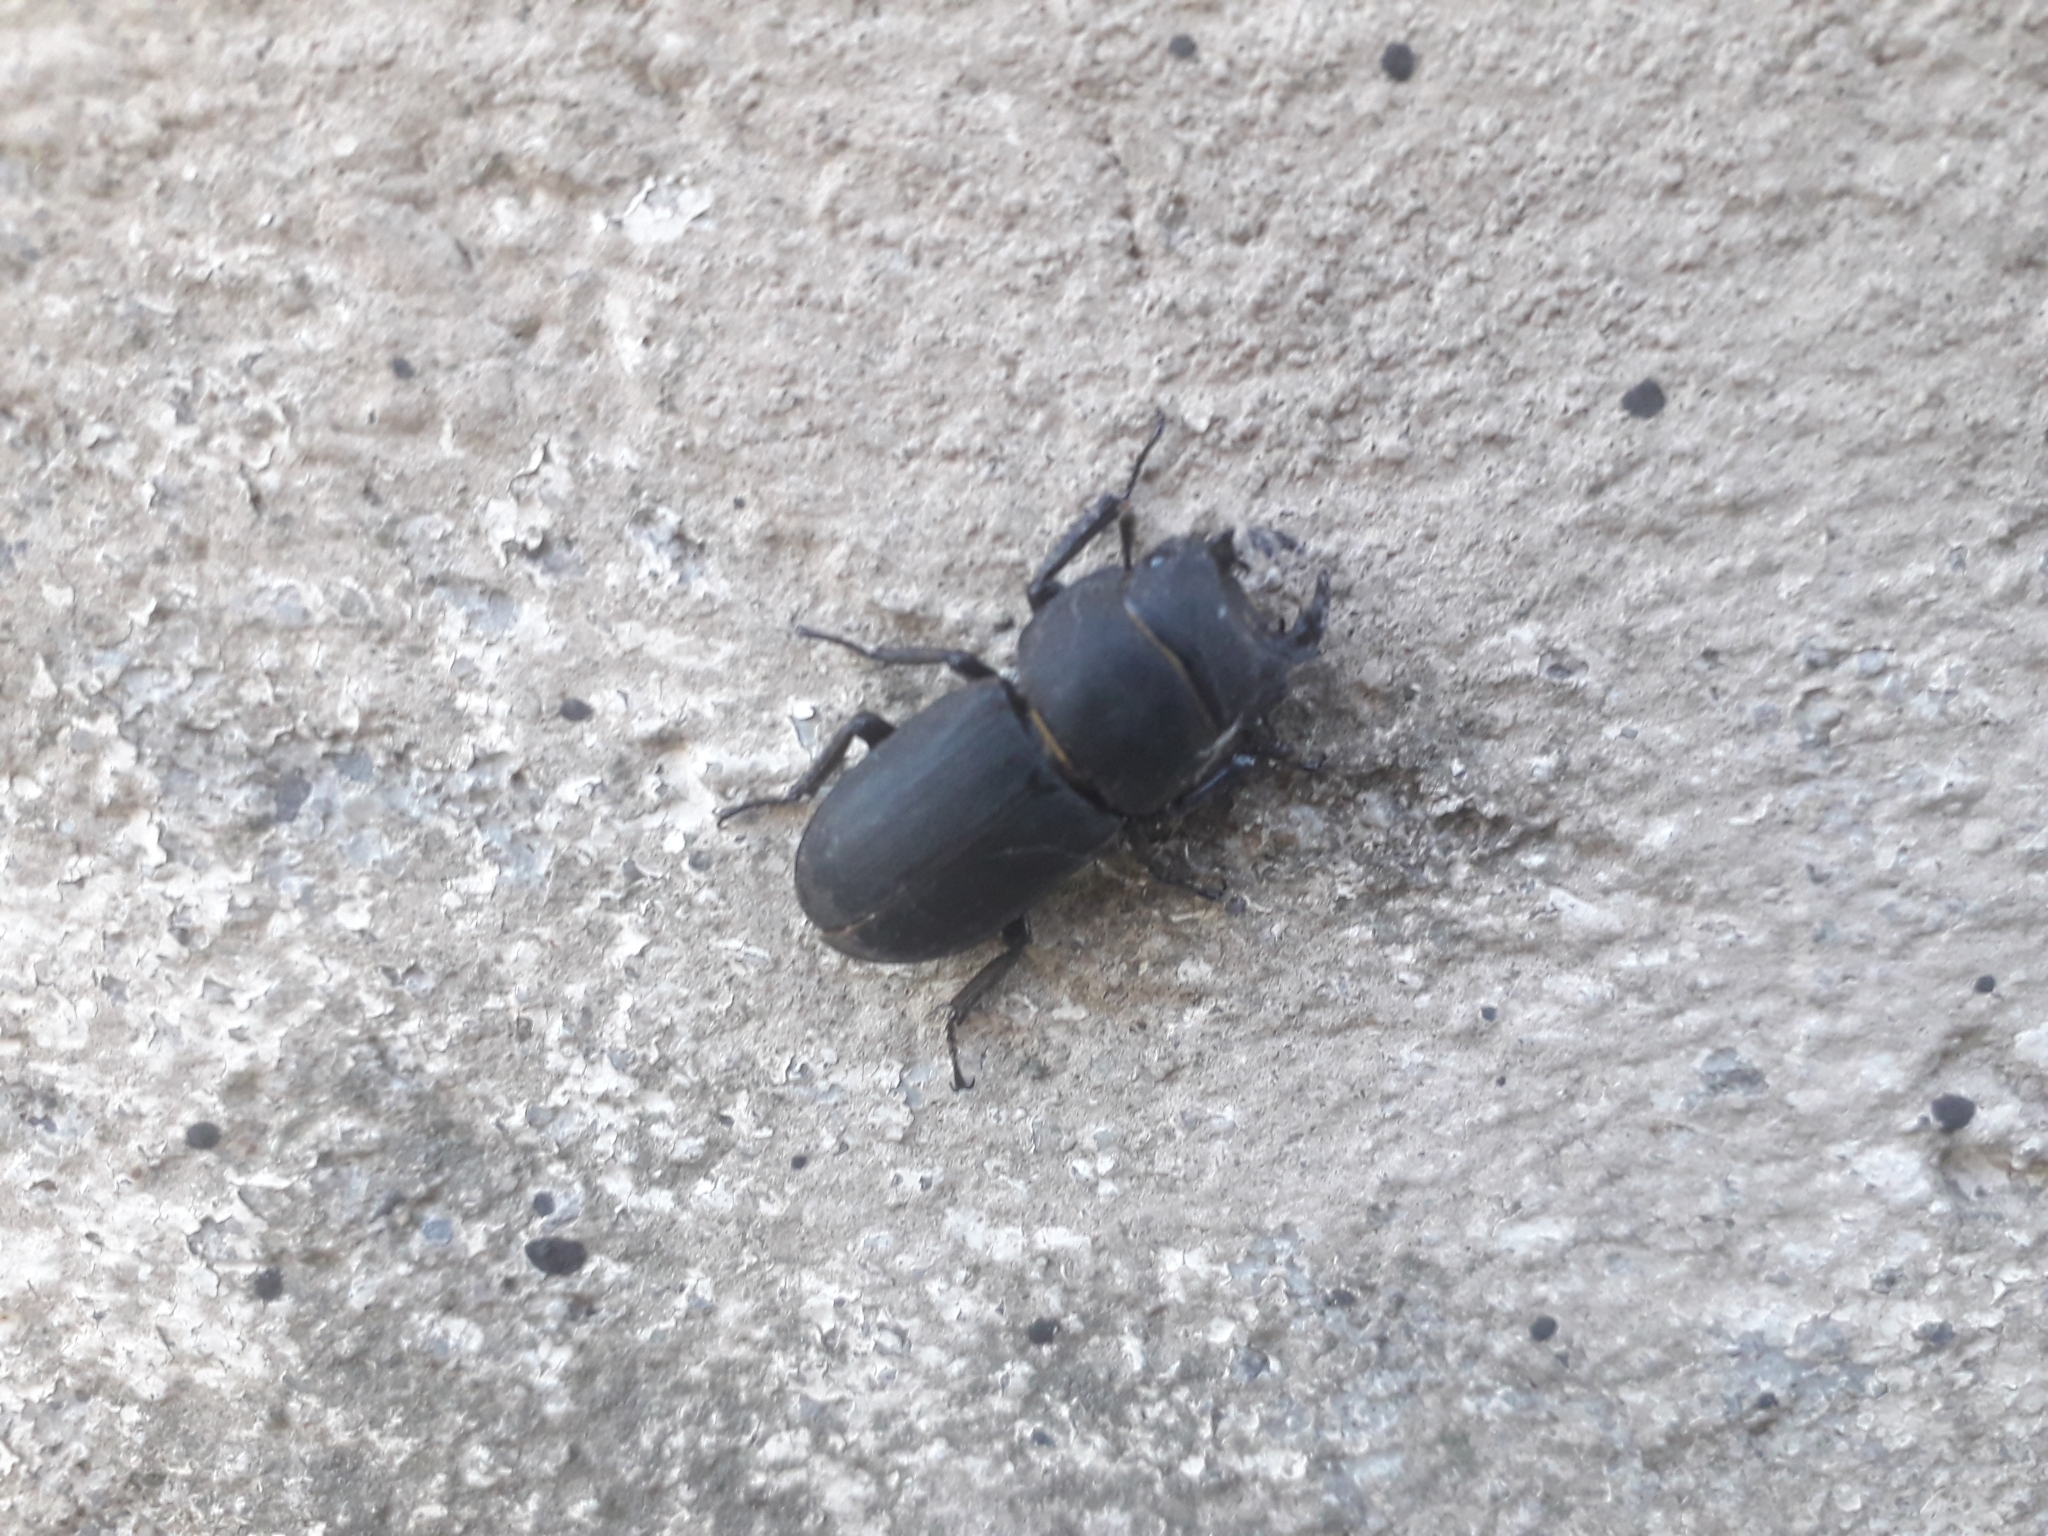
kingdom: Animalia
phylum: Arthropoda
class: Insecta
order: Coleoptera
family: Lucanidae
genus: Dorcus
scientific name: Dorcus parallelipipedus
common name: Lesser stag beetle
